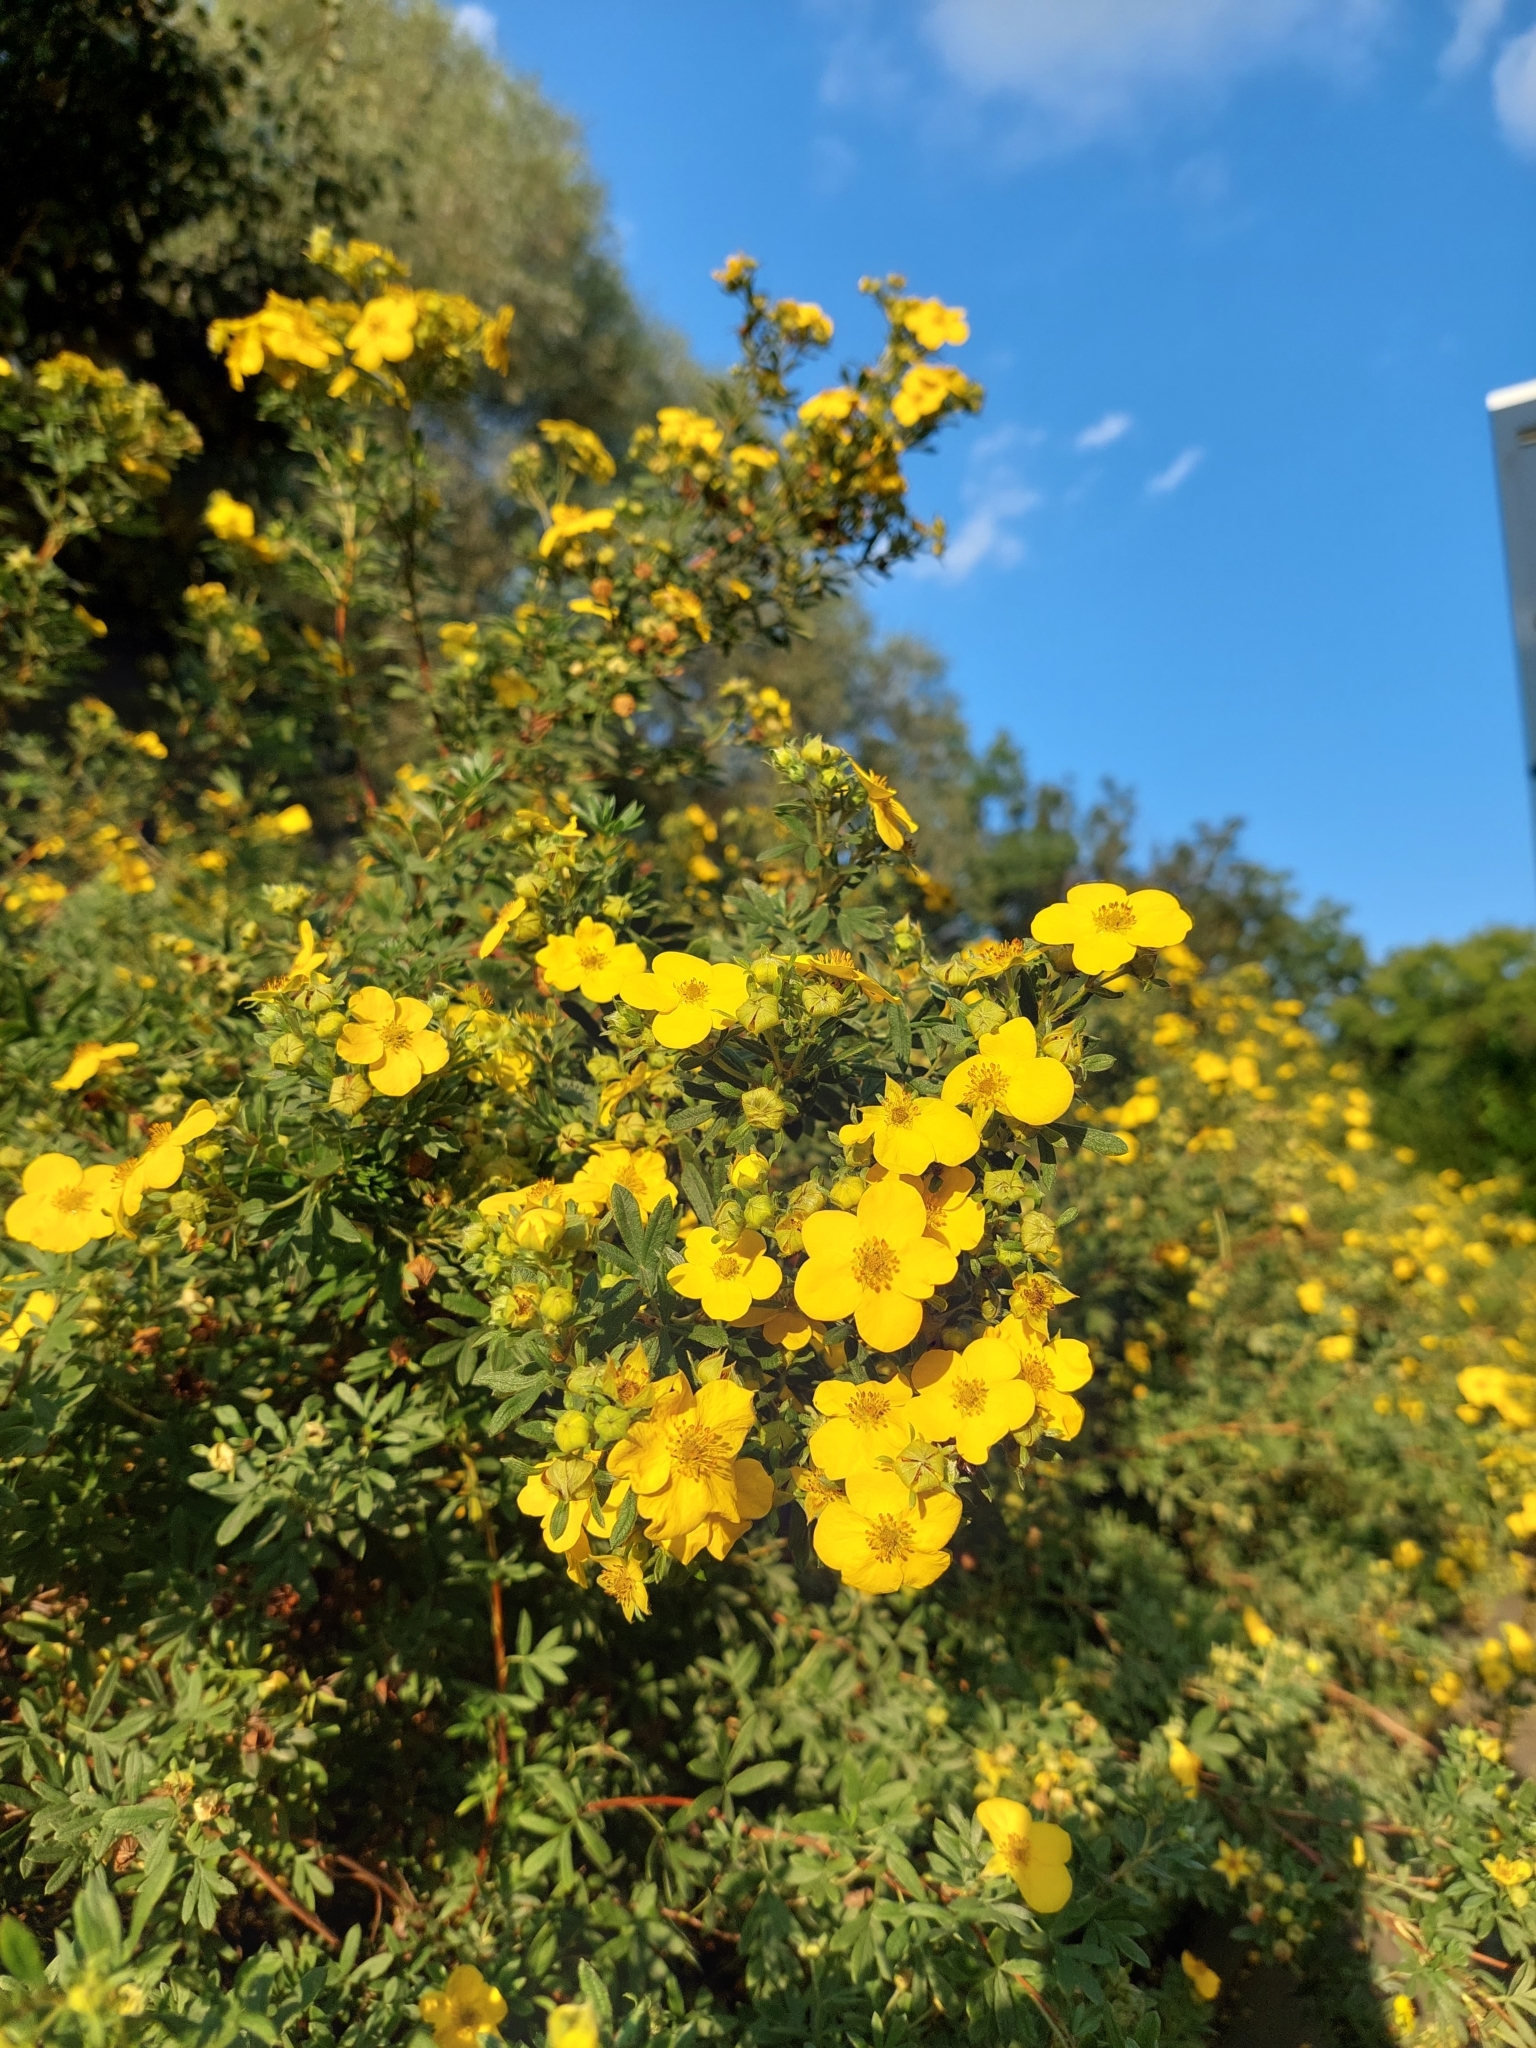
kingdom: Plantae
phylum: Tracheophyta
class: Magnoliopsida
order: Rosales
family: Rosaceae
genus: Dasiphora
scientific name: Dasiphora fruticosa
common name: Shrubby cinquefoil
